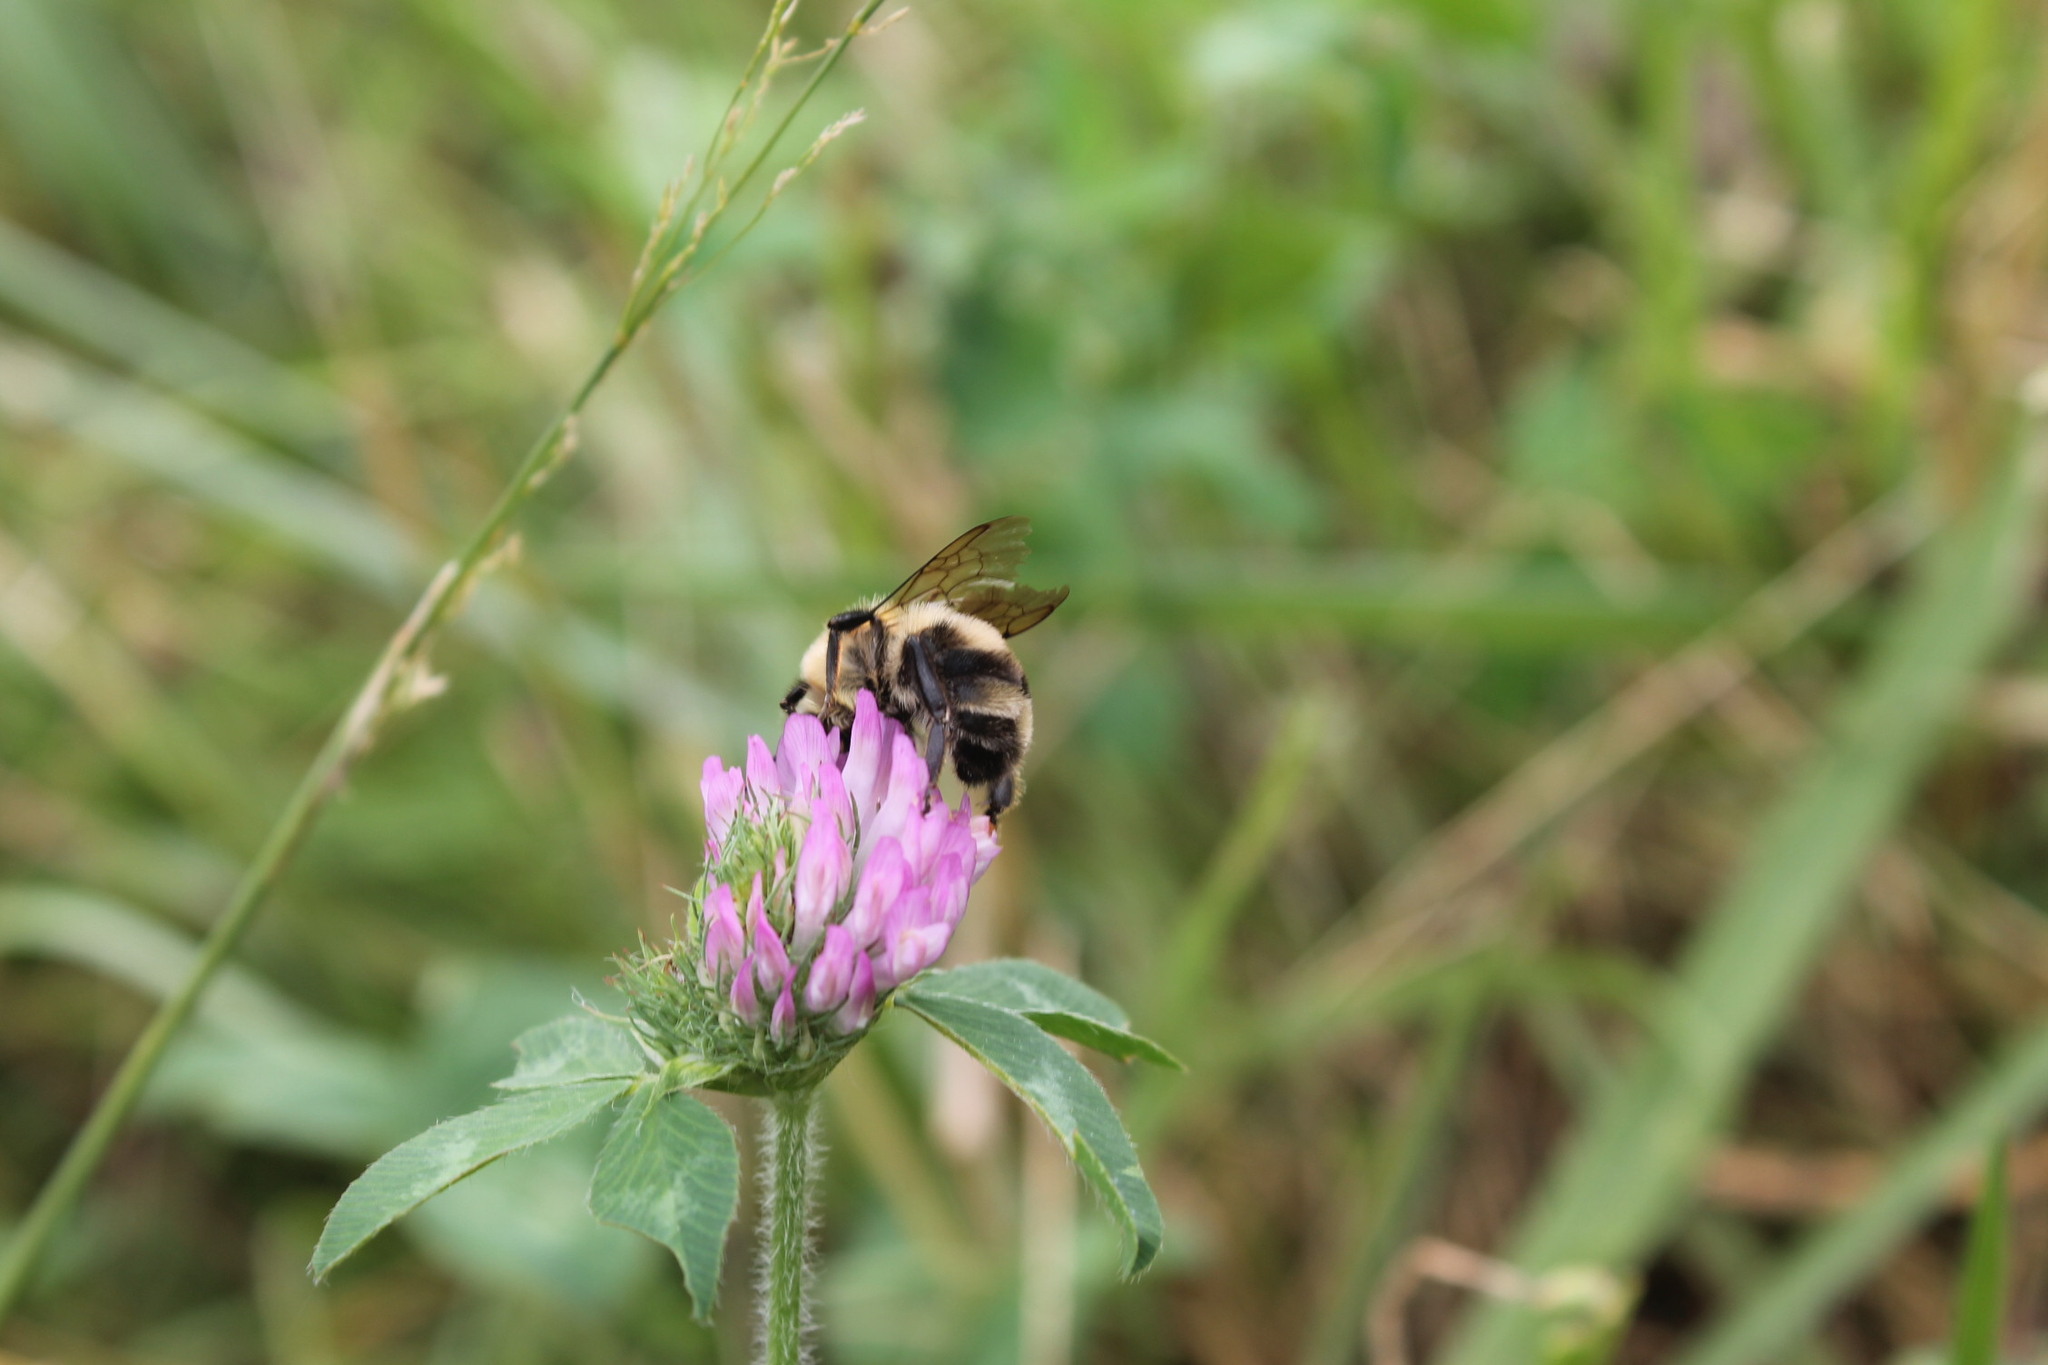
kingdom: Animalia
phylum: Arthropoda
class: Insecta
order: Hymenoptera
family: Apidae
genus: Bombus
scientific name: Bombus bimaculatus
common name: Two-spotted bumble bee
